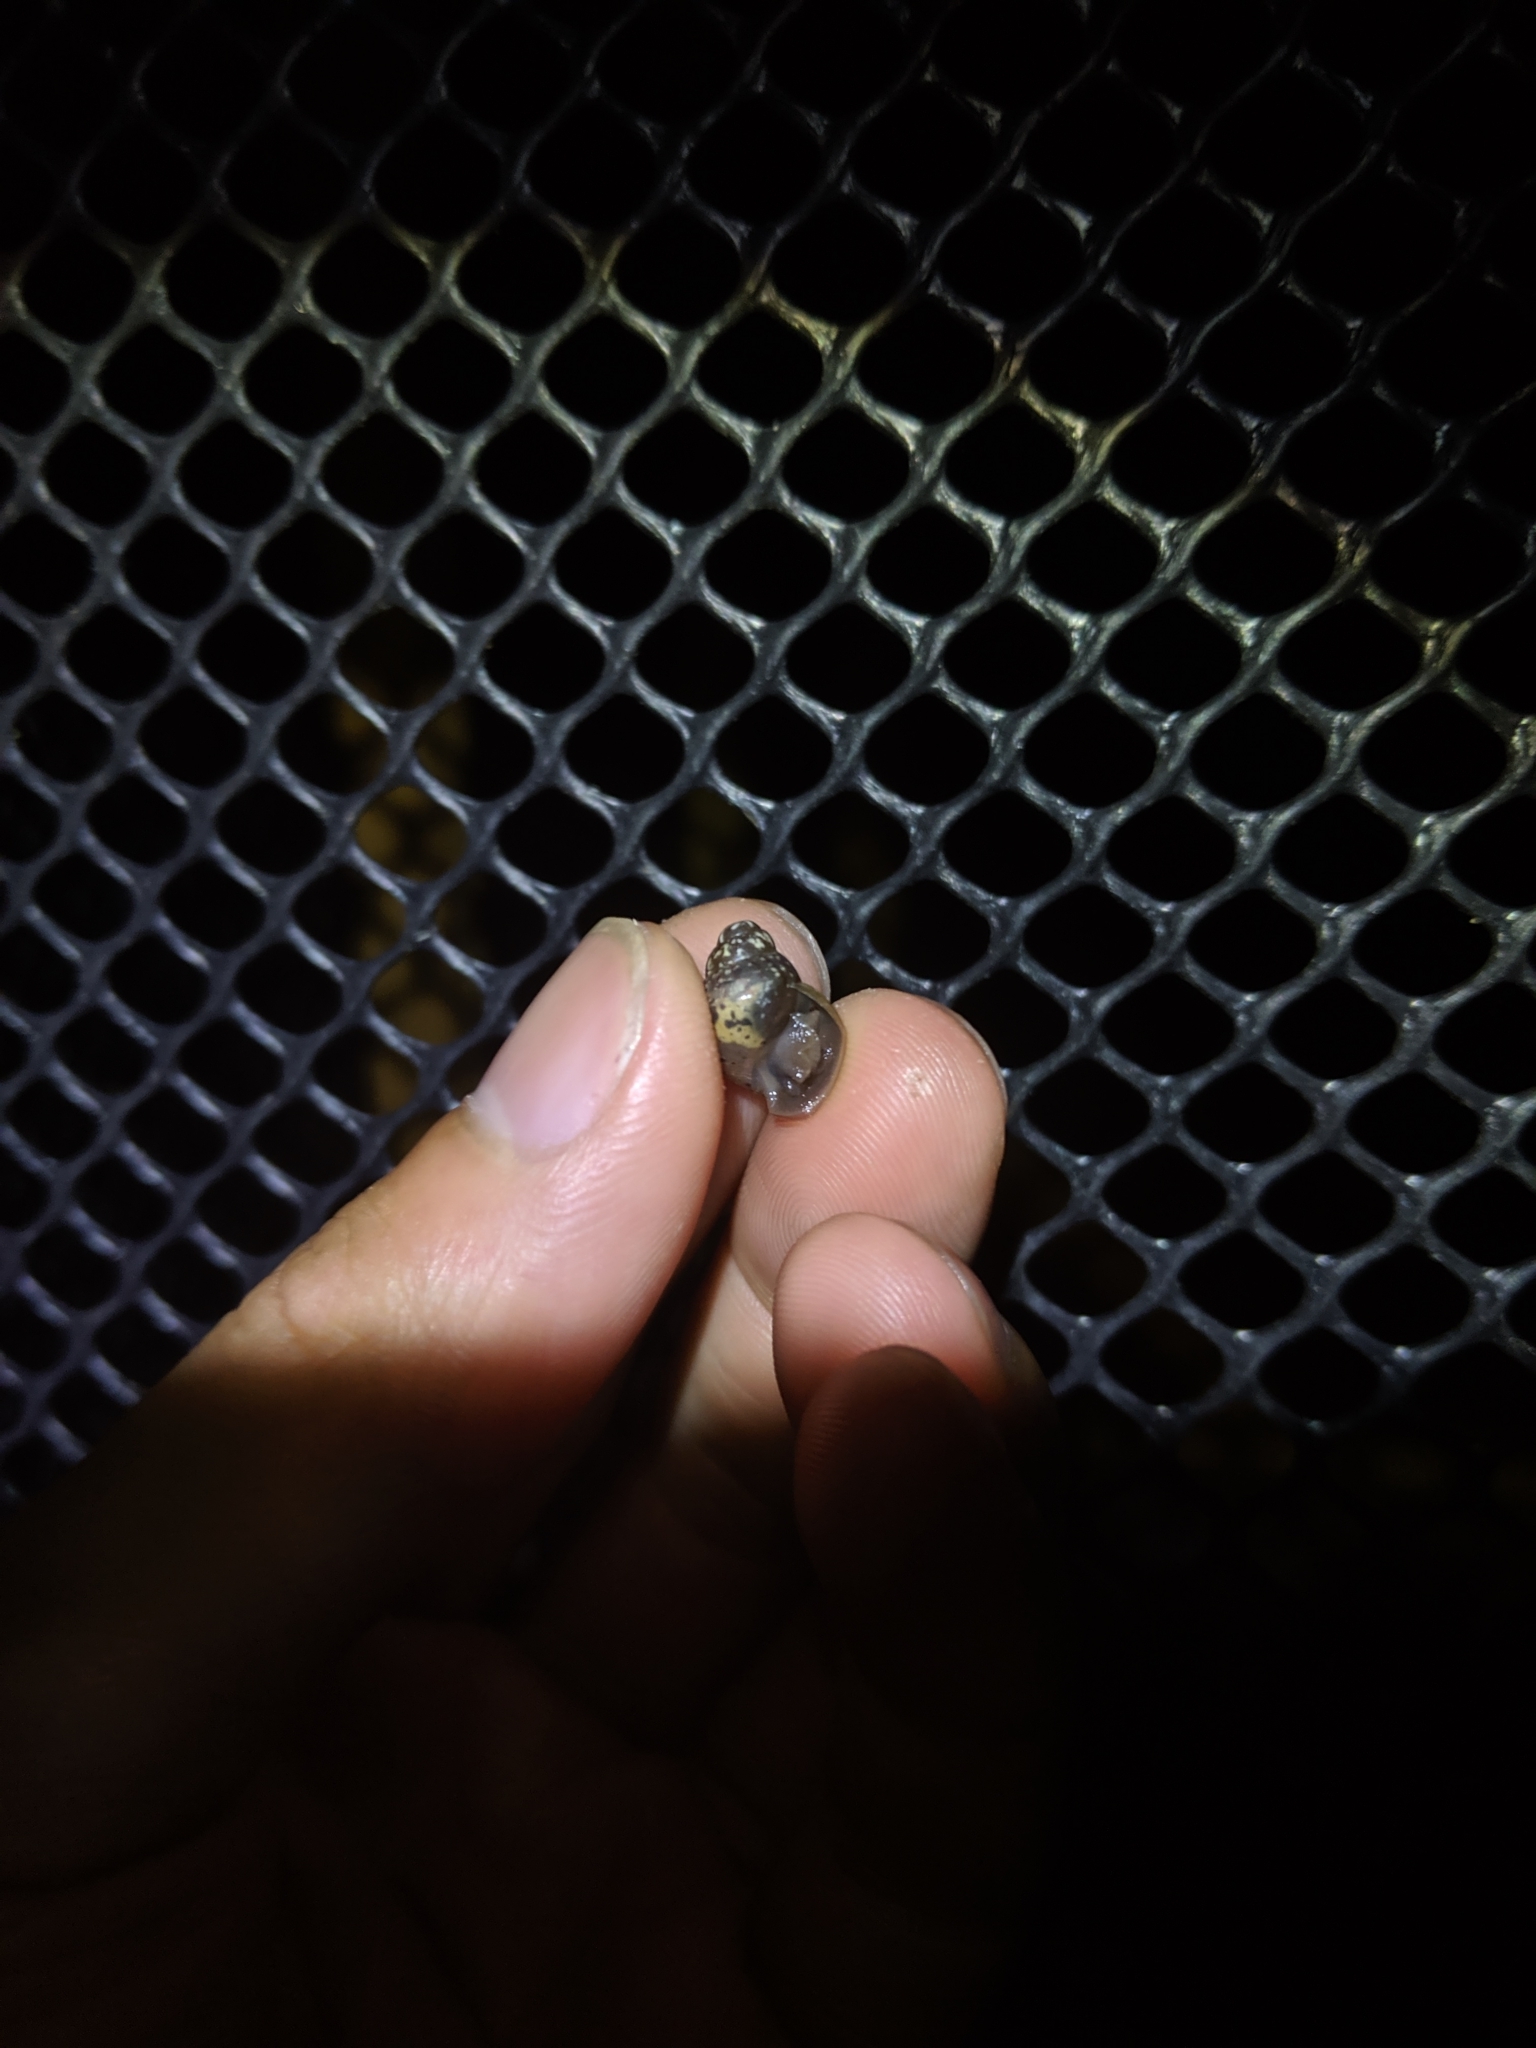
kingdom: Animalia
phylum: Mollusca
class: Gastropoda
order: Stylommatophora
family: Achatinidae
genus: Lissachatina
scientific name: Lissachatina fulica
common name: Giant african snail
